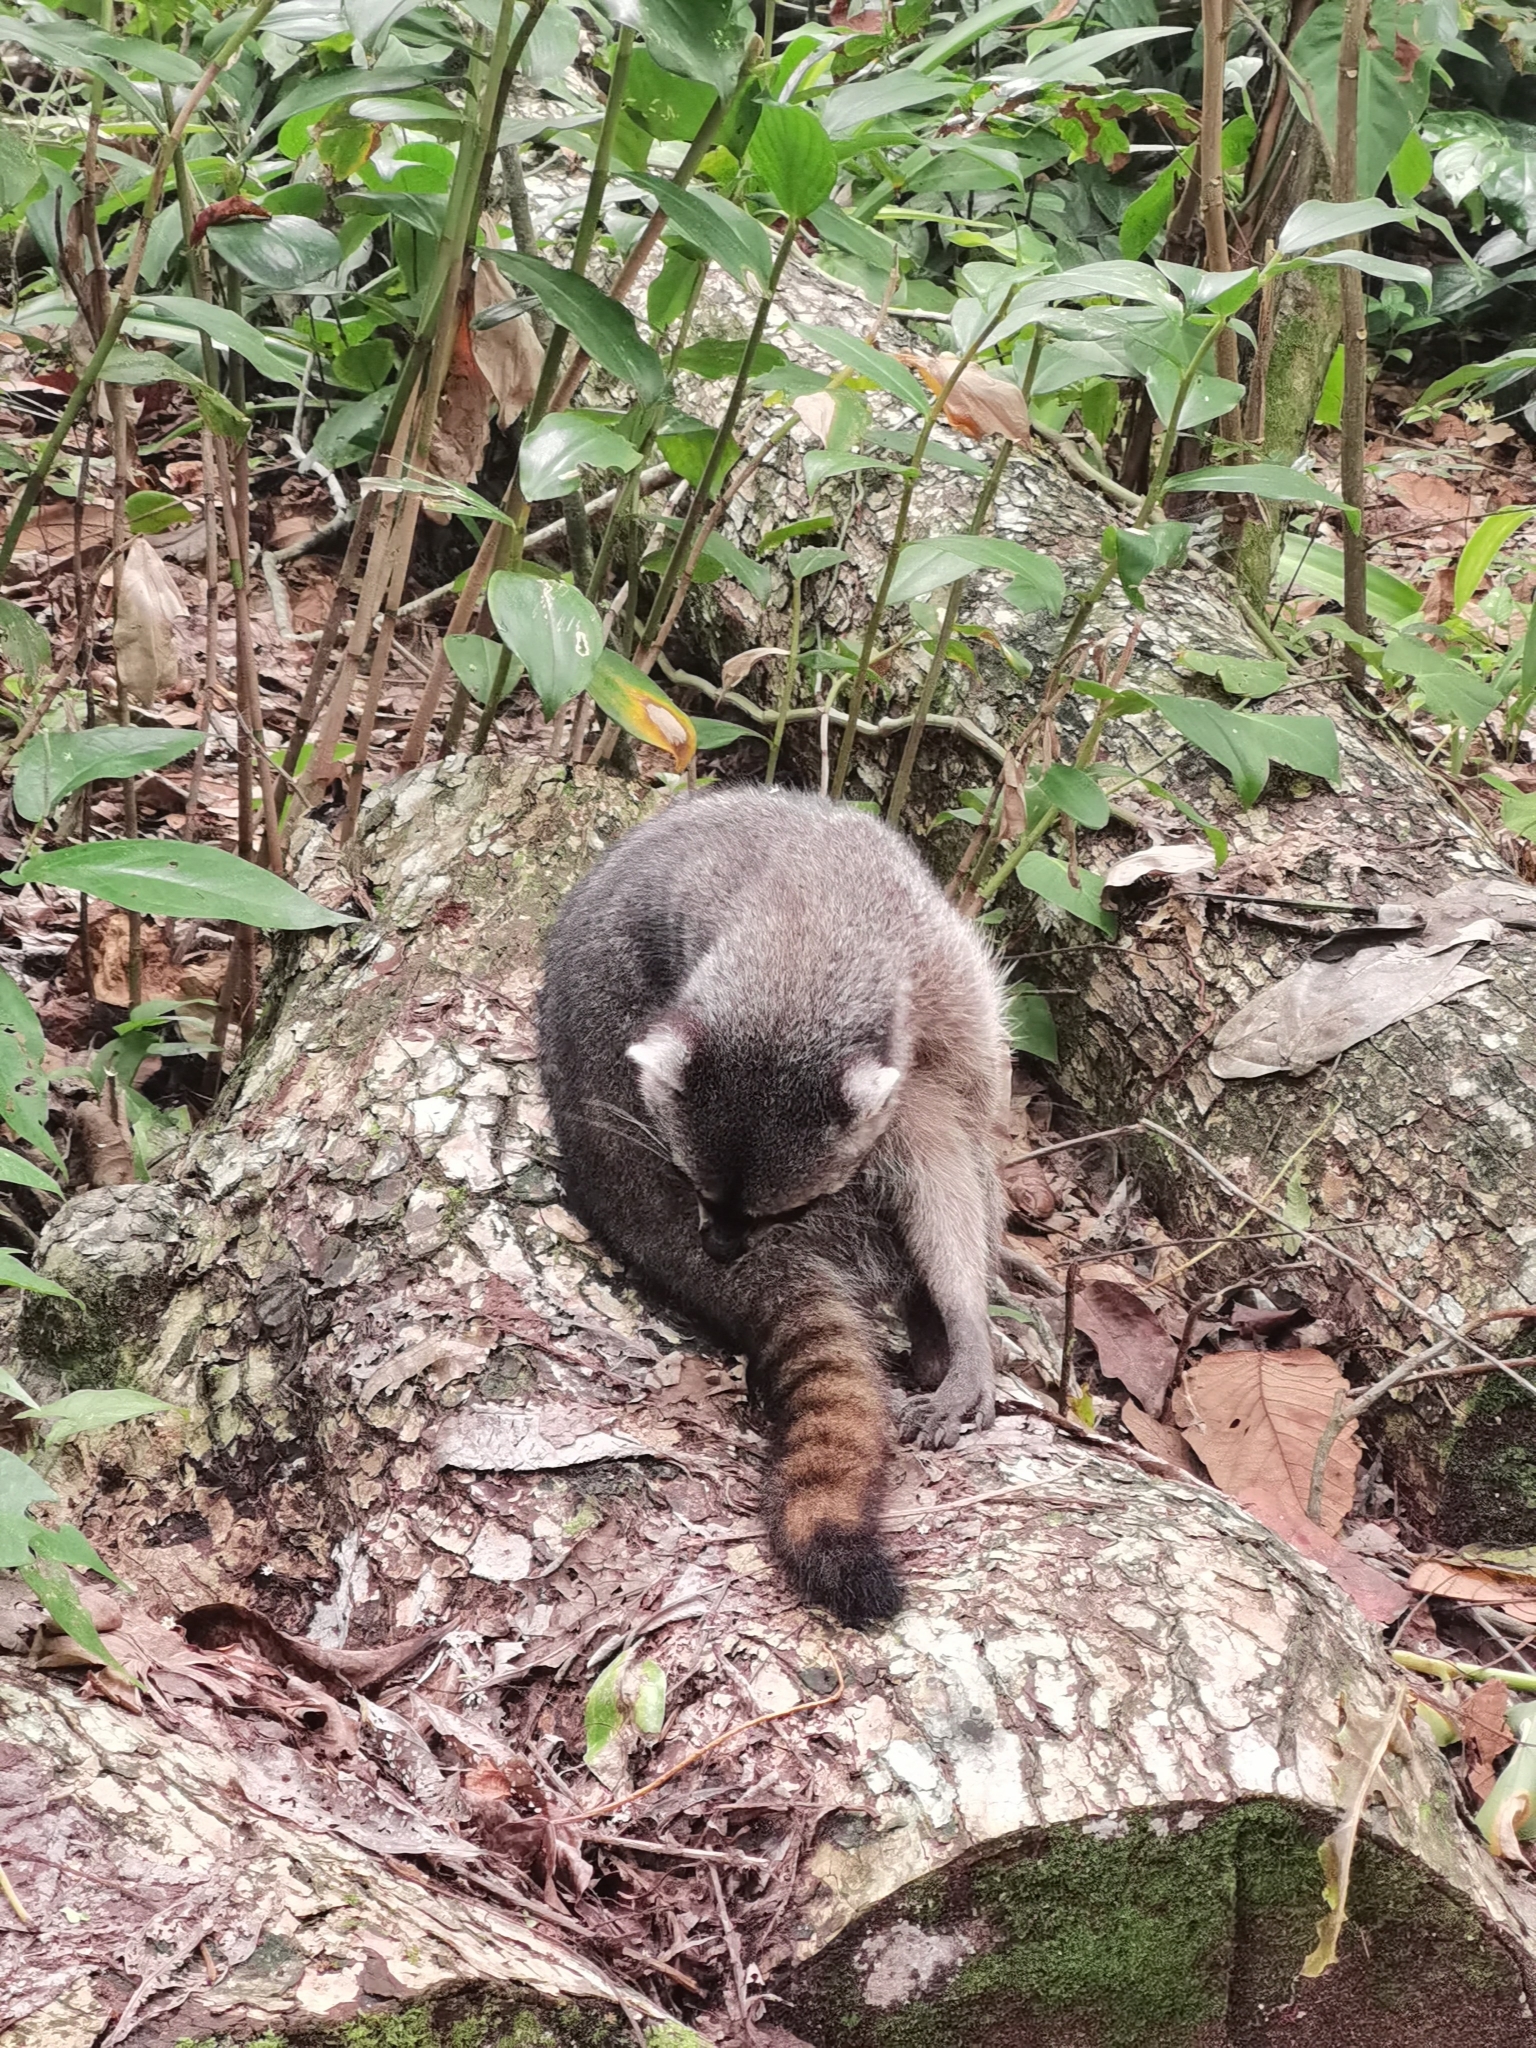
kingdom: Animalia
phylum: Chordata
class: Mammalia
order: Carnivora
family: Procyonidae
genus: Procyon
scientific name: Procyon lotor
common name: Raccoon
